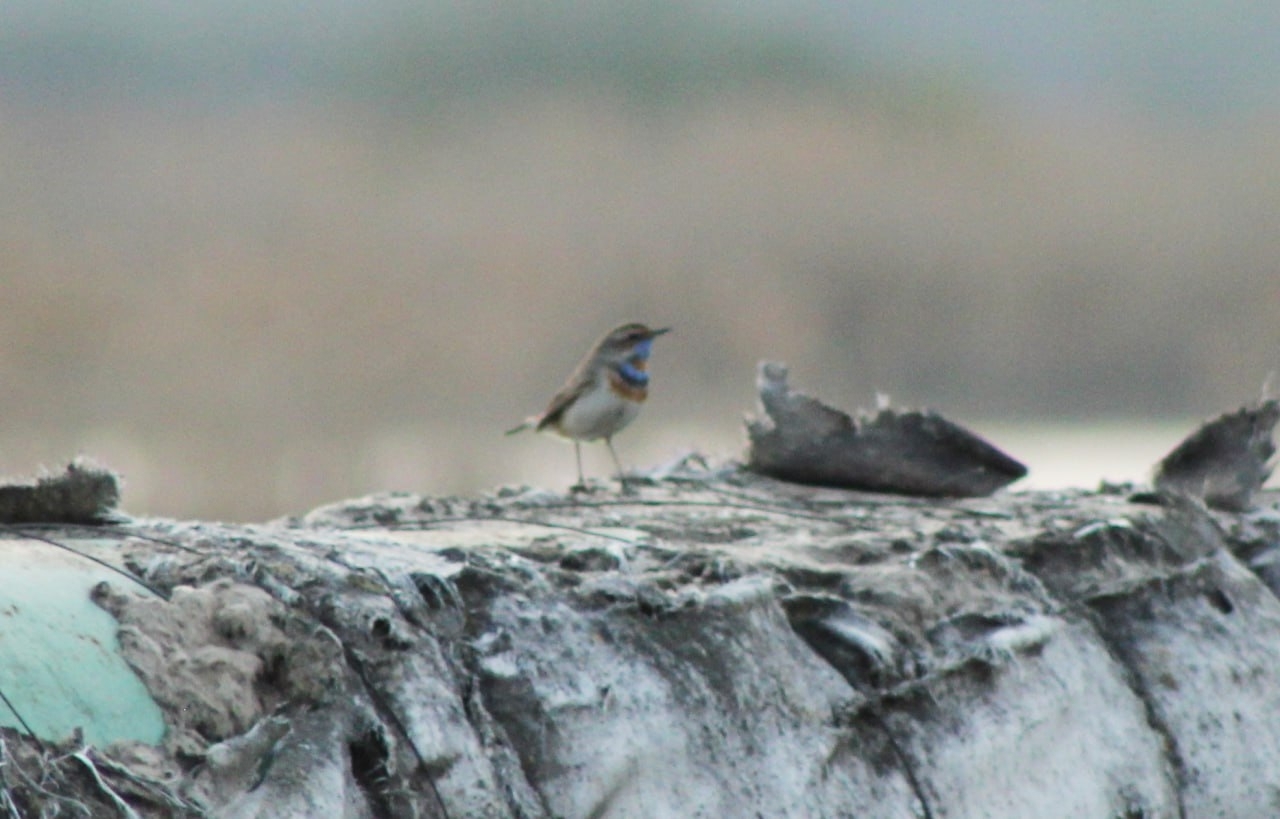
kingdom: Animalia
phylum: Chordata
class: Aves
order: Passeriformes
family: Muscicapidae
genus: Luscinia
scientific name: Luscinia svecica
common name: Bluethroat
